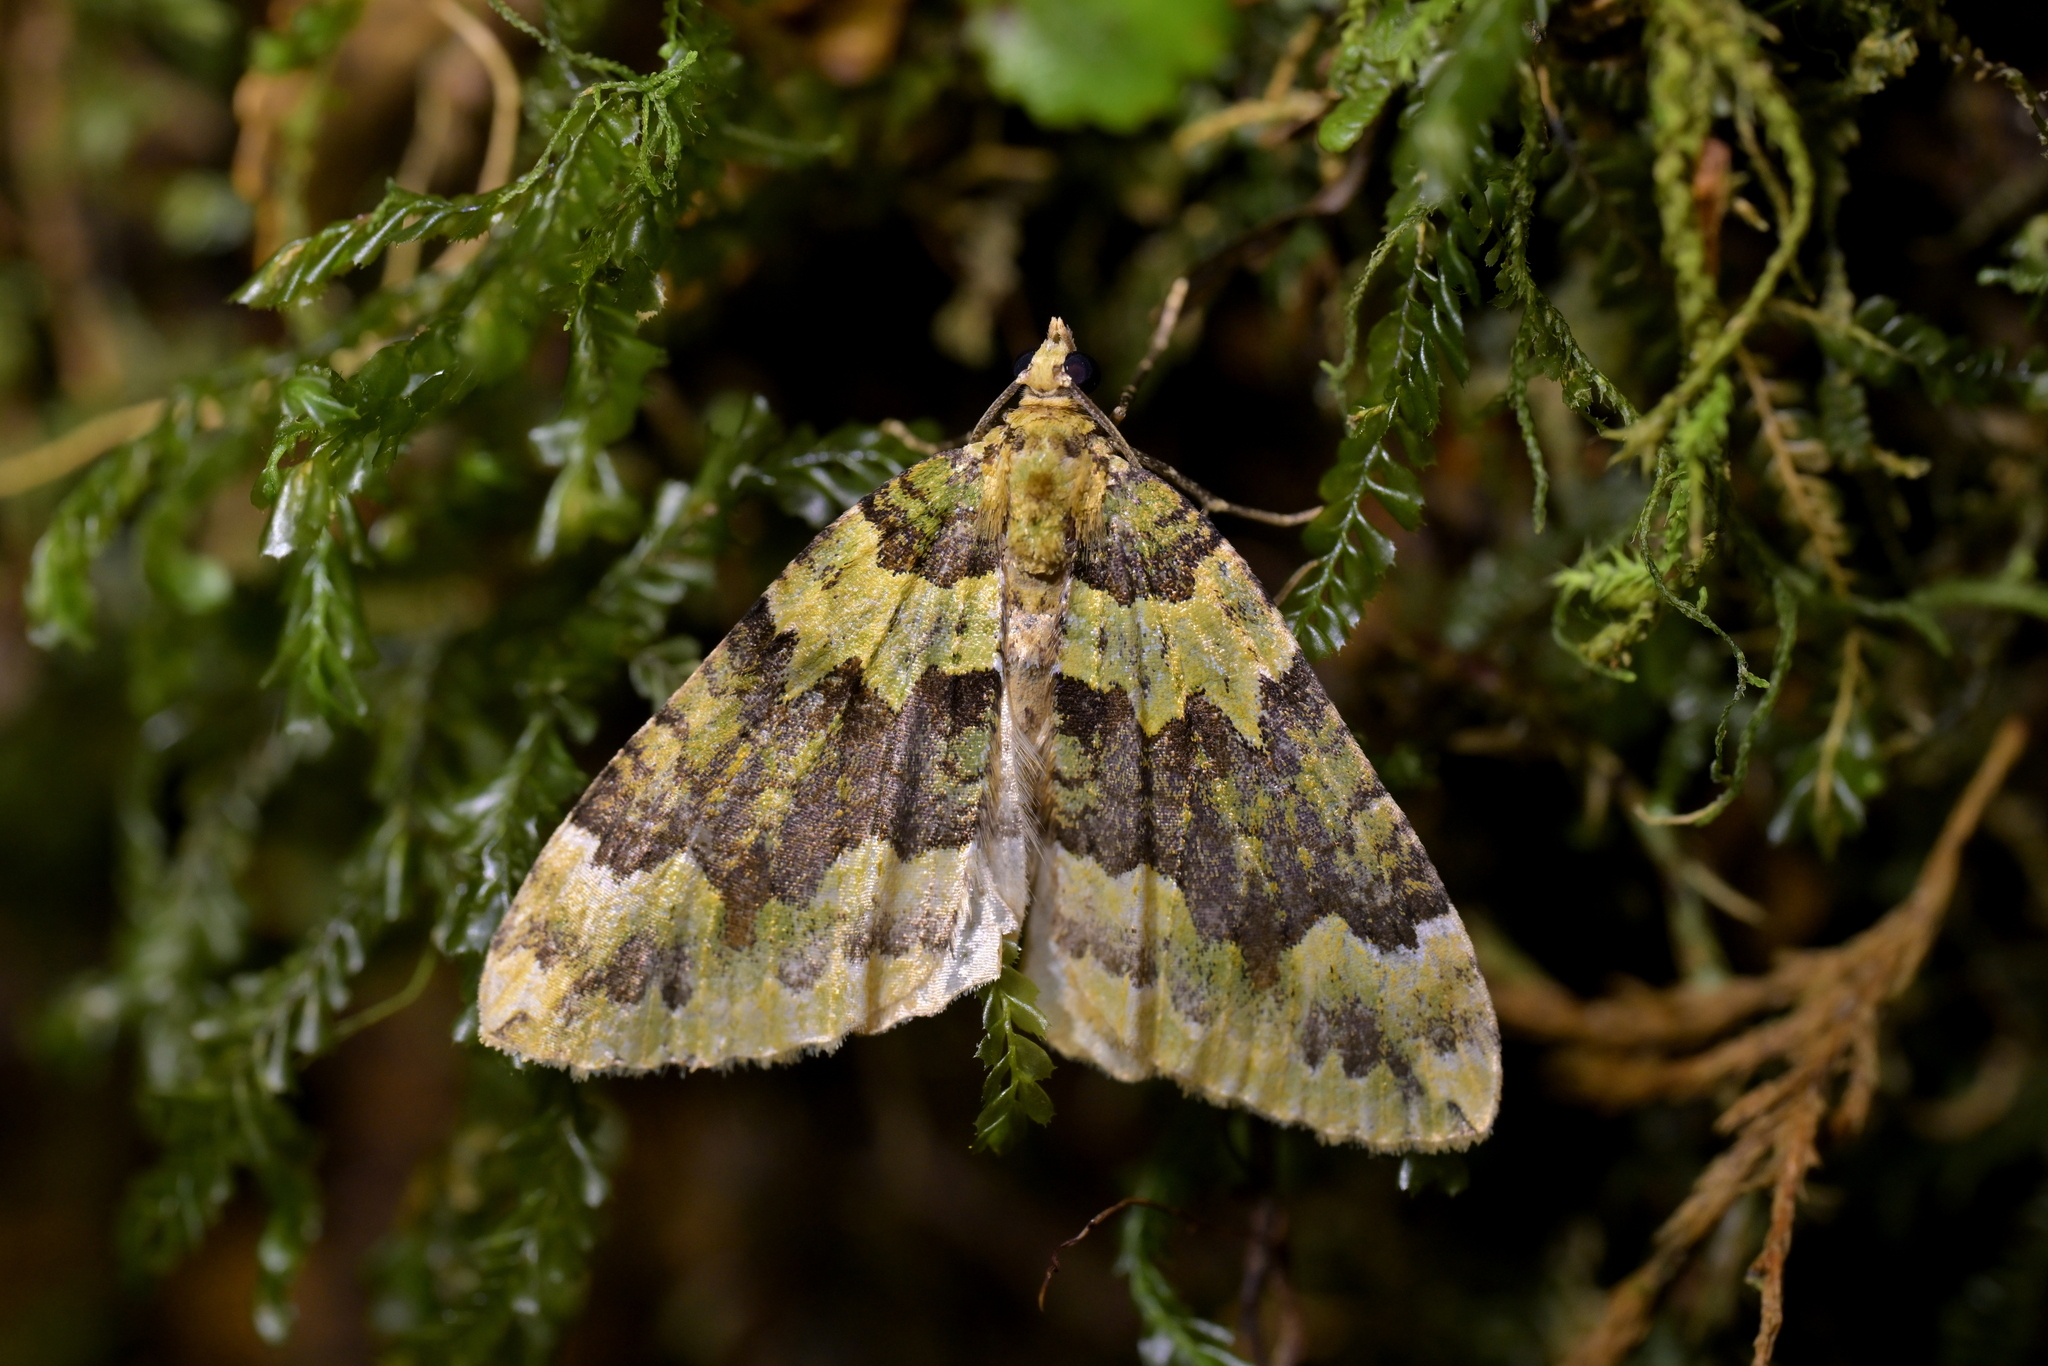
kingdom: Animalia
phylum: Arthropoda
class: Insecta
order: Lepidoptera
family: Geometridae
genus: Austrocidaria
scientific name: Austrocidaria callichlora
